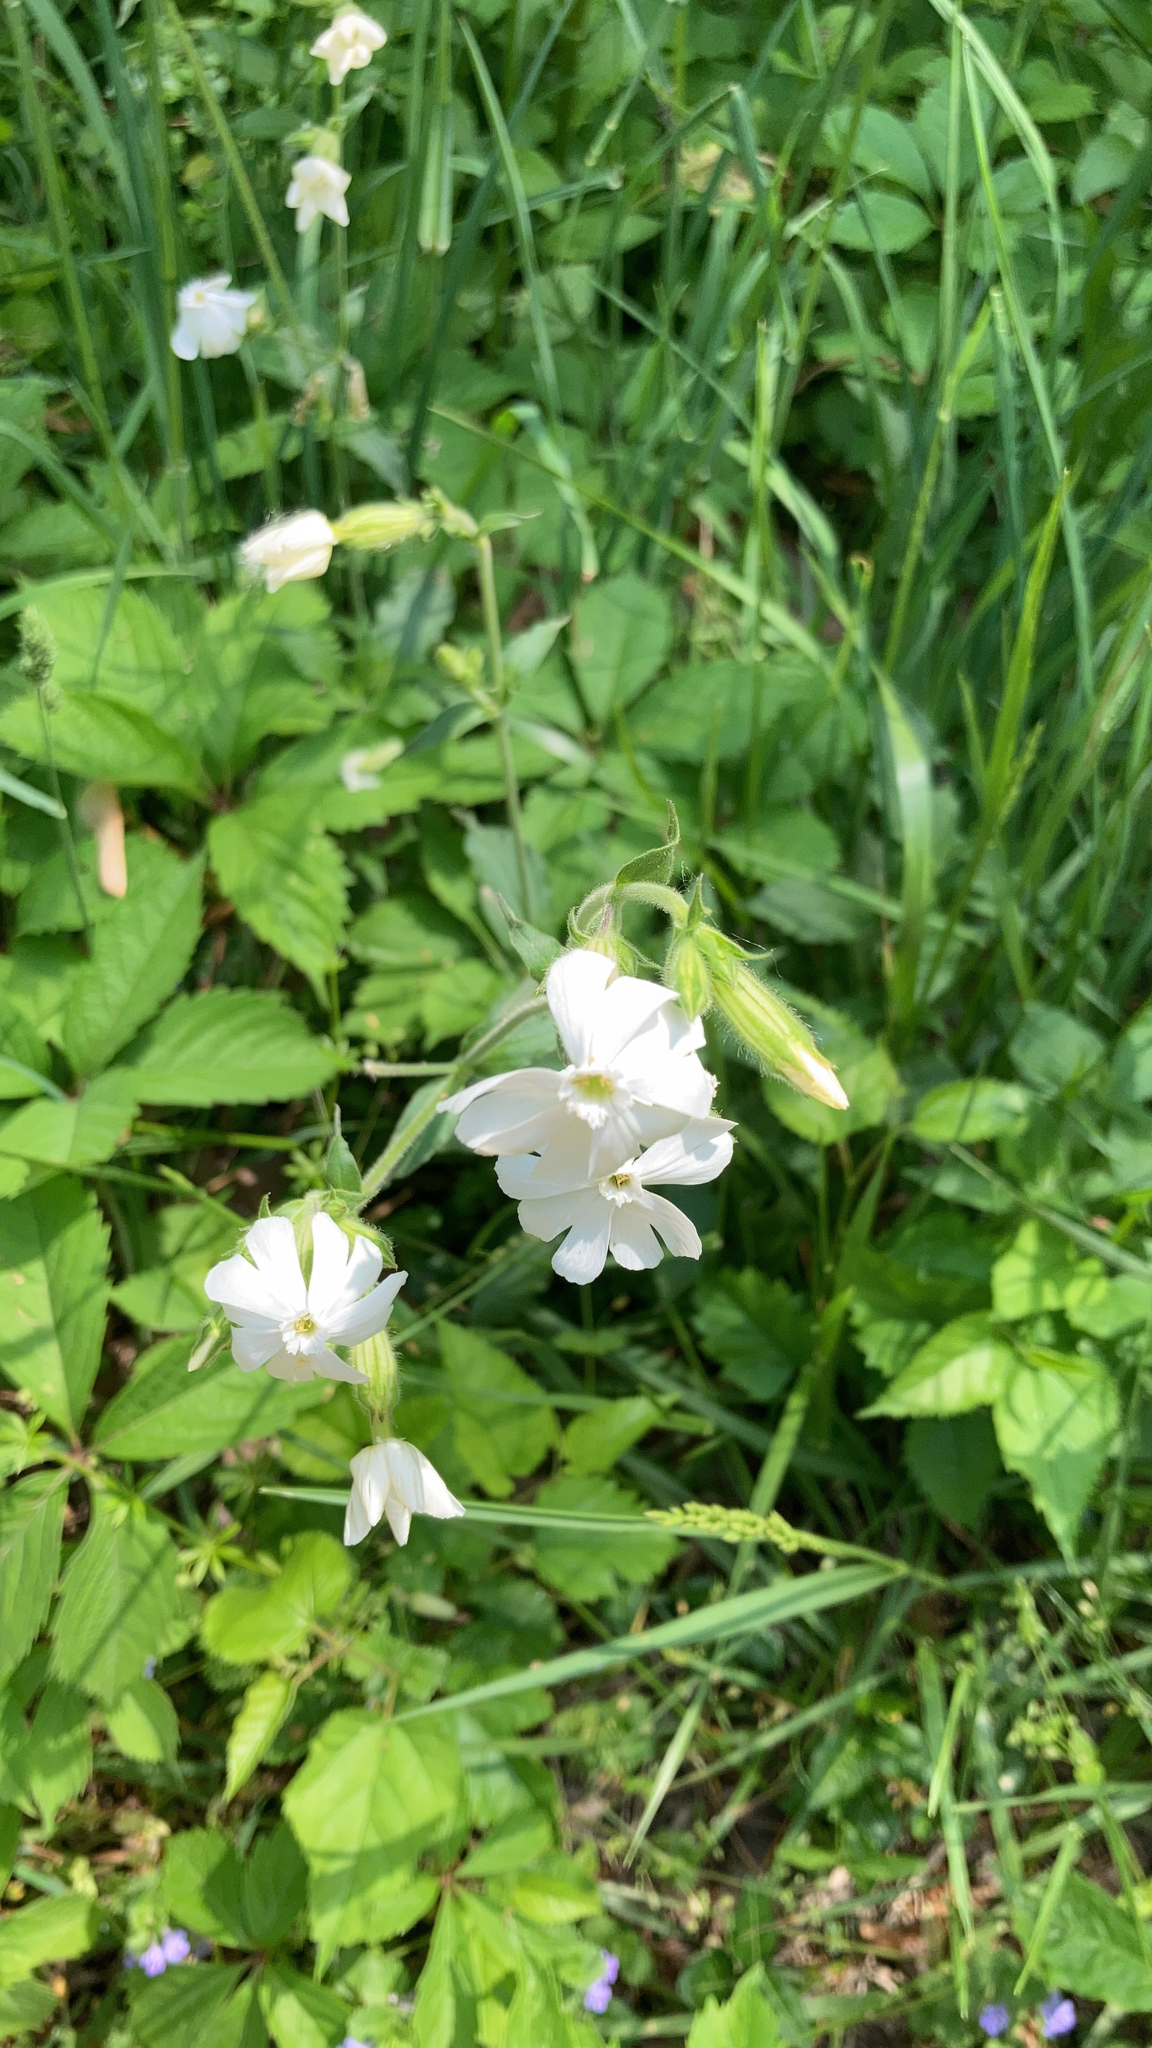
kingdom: Plantae
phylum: Tracheophyta
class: Magnoliopsida
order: Caryophyllales
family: Caryophyllaceae
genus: Silene
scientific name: Silene latifolia
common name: White campion
